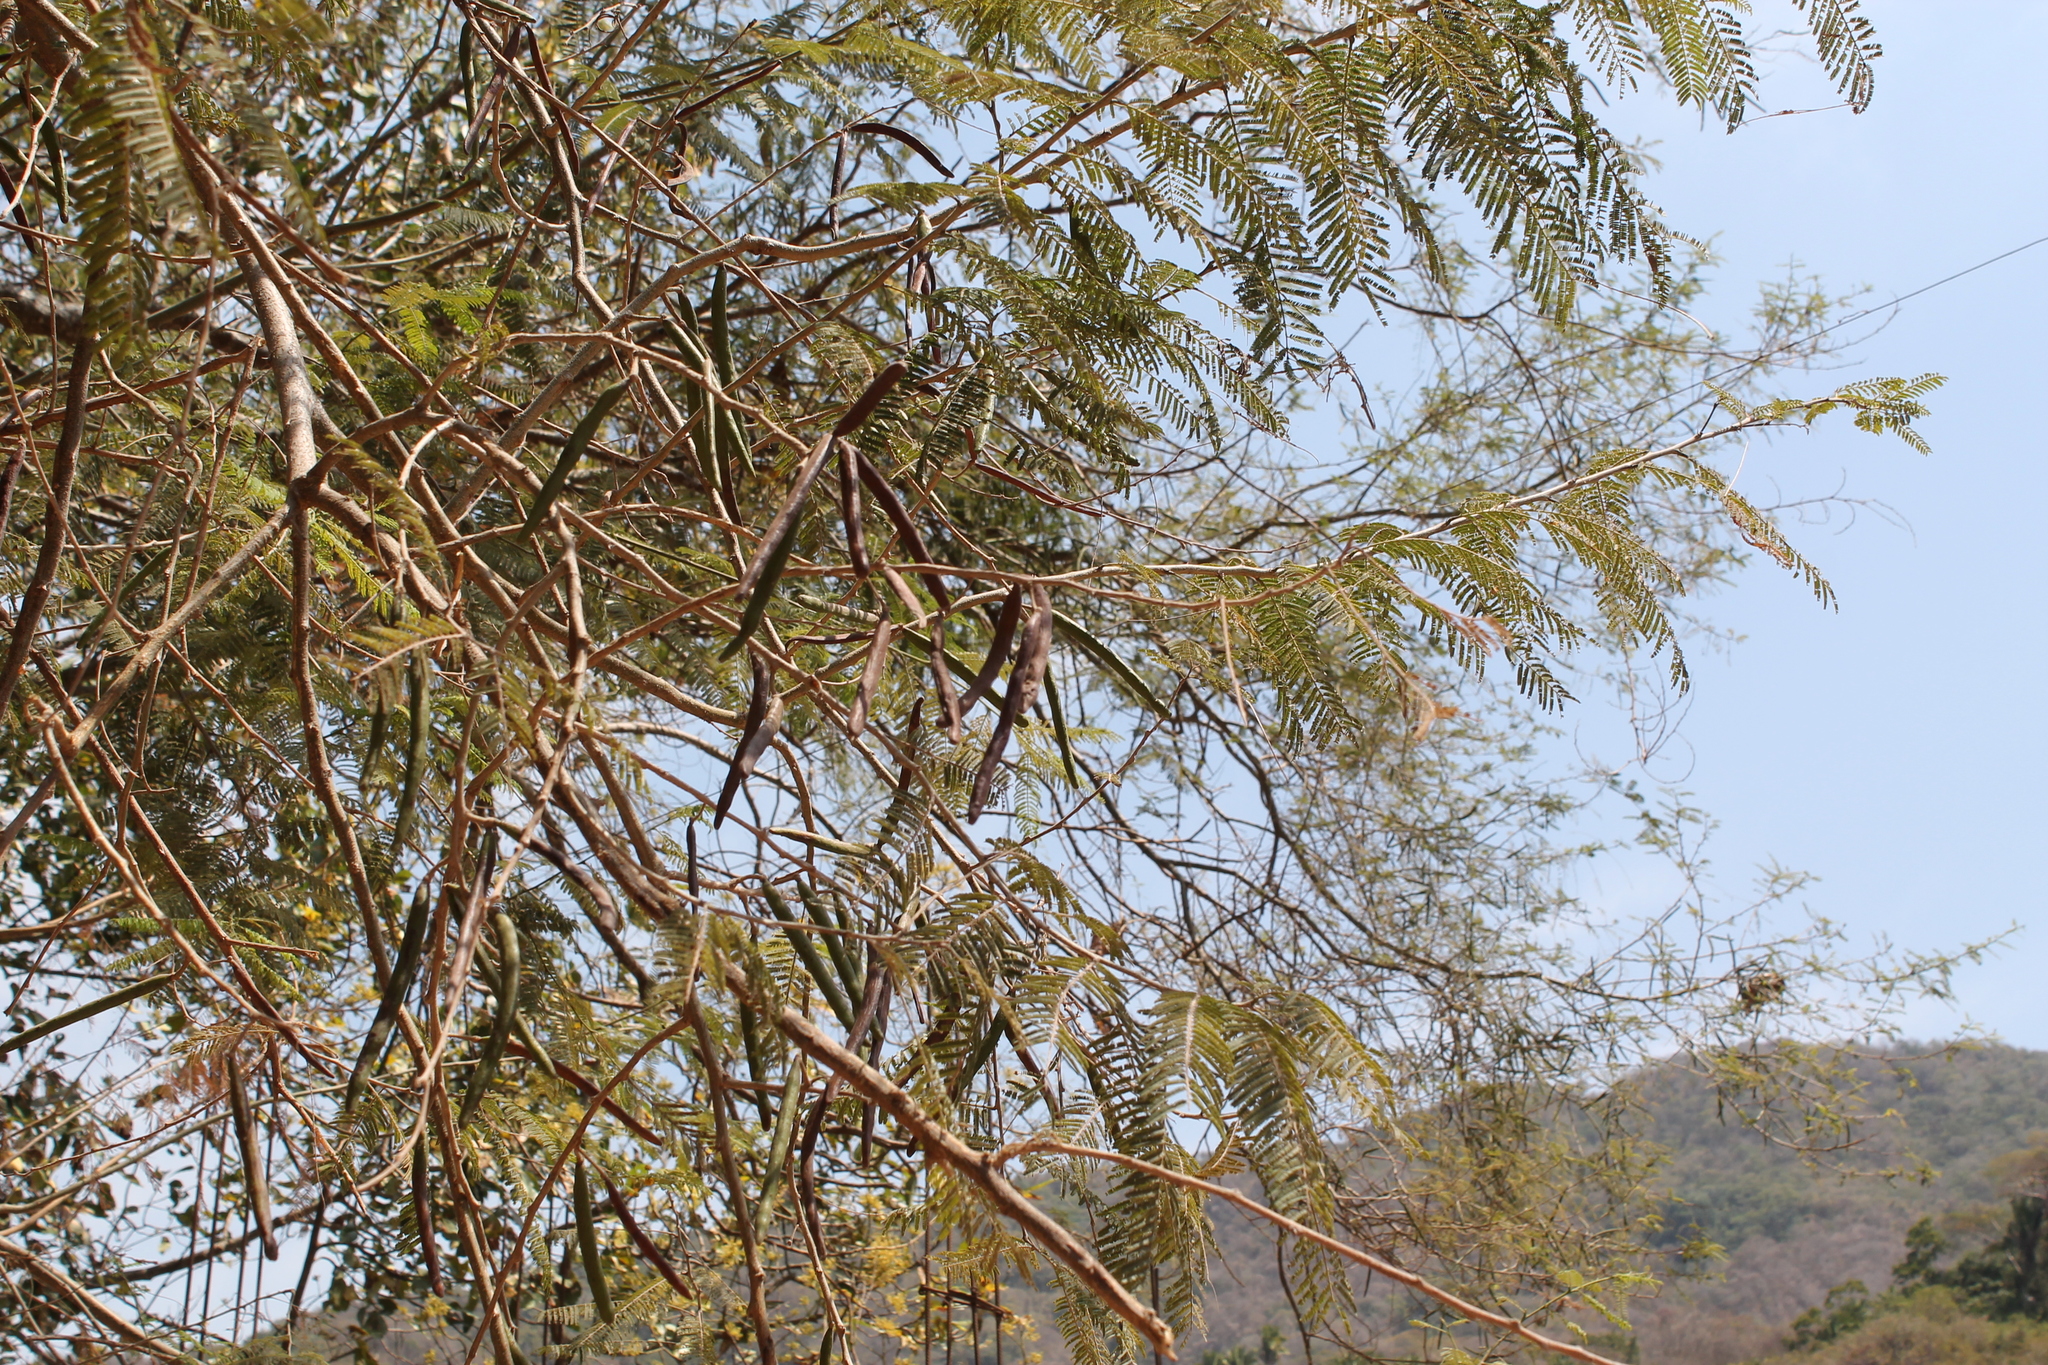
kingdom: Plantae
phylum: Tracheophyta
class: Magnoliopsida
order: Fabales
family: Fabaceae
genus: Vachellia
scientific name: Vachellia macracantha
